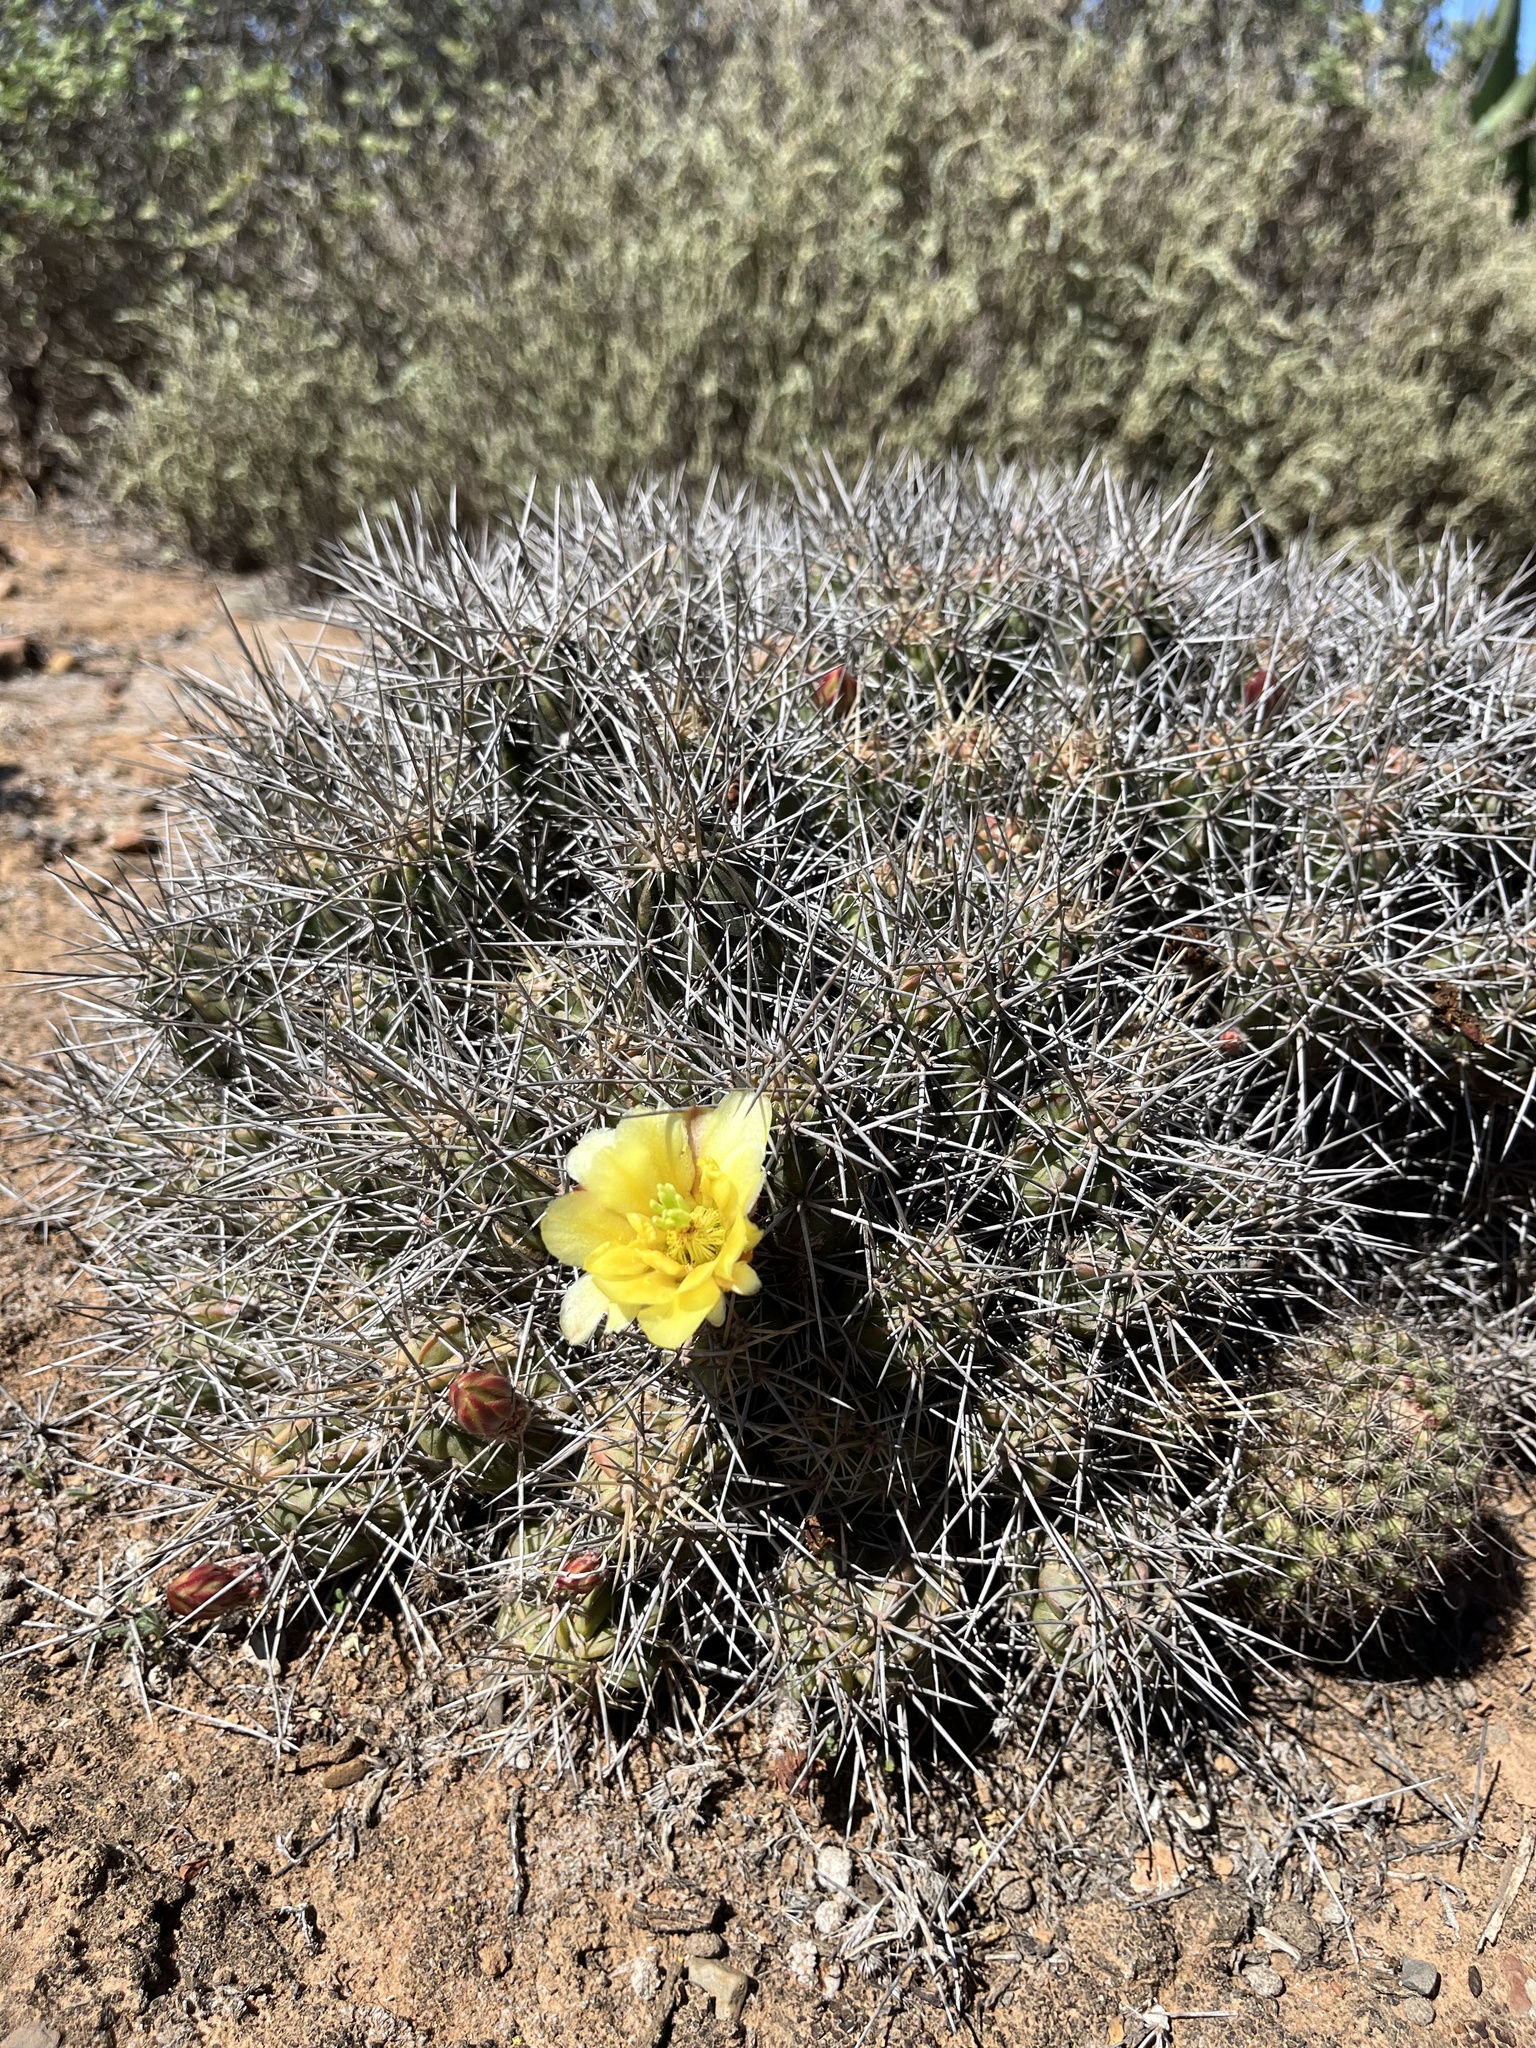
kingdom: Plantae
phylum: Tracheophyta
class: Magnoliopsida
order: Caryophyllales
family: Cactaceae
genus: Echinocereus
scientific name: Echinocereus maritimus
